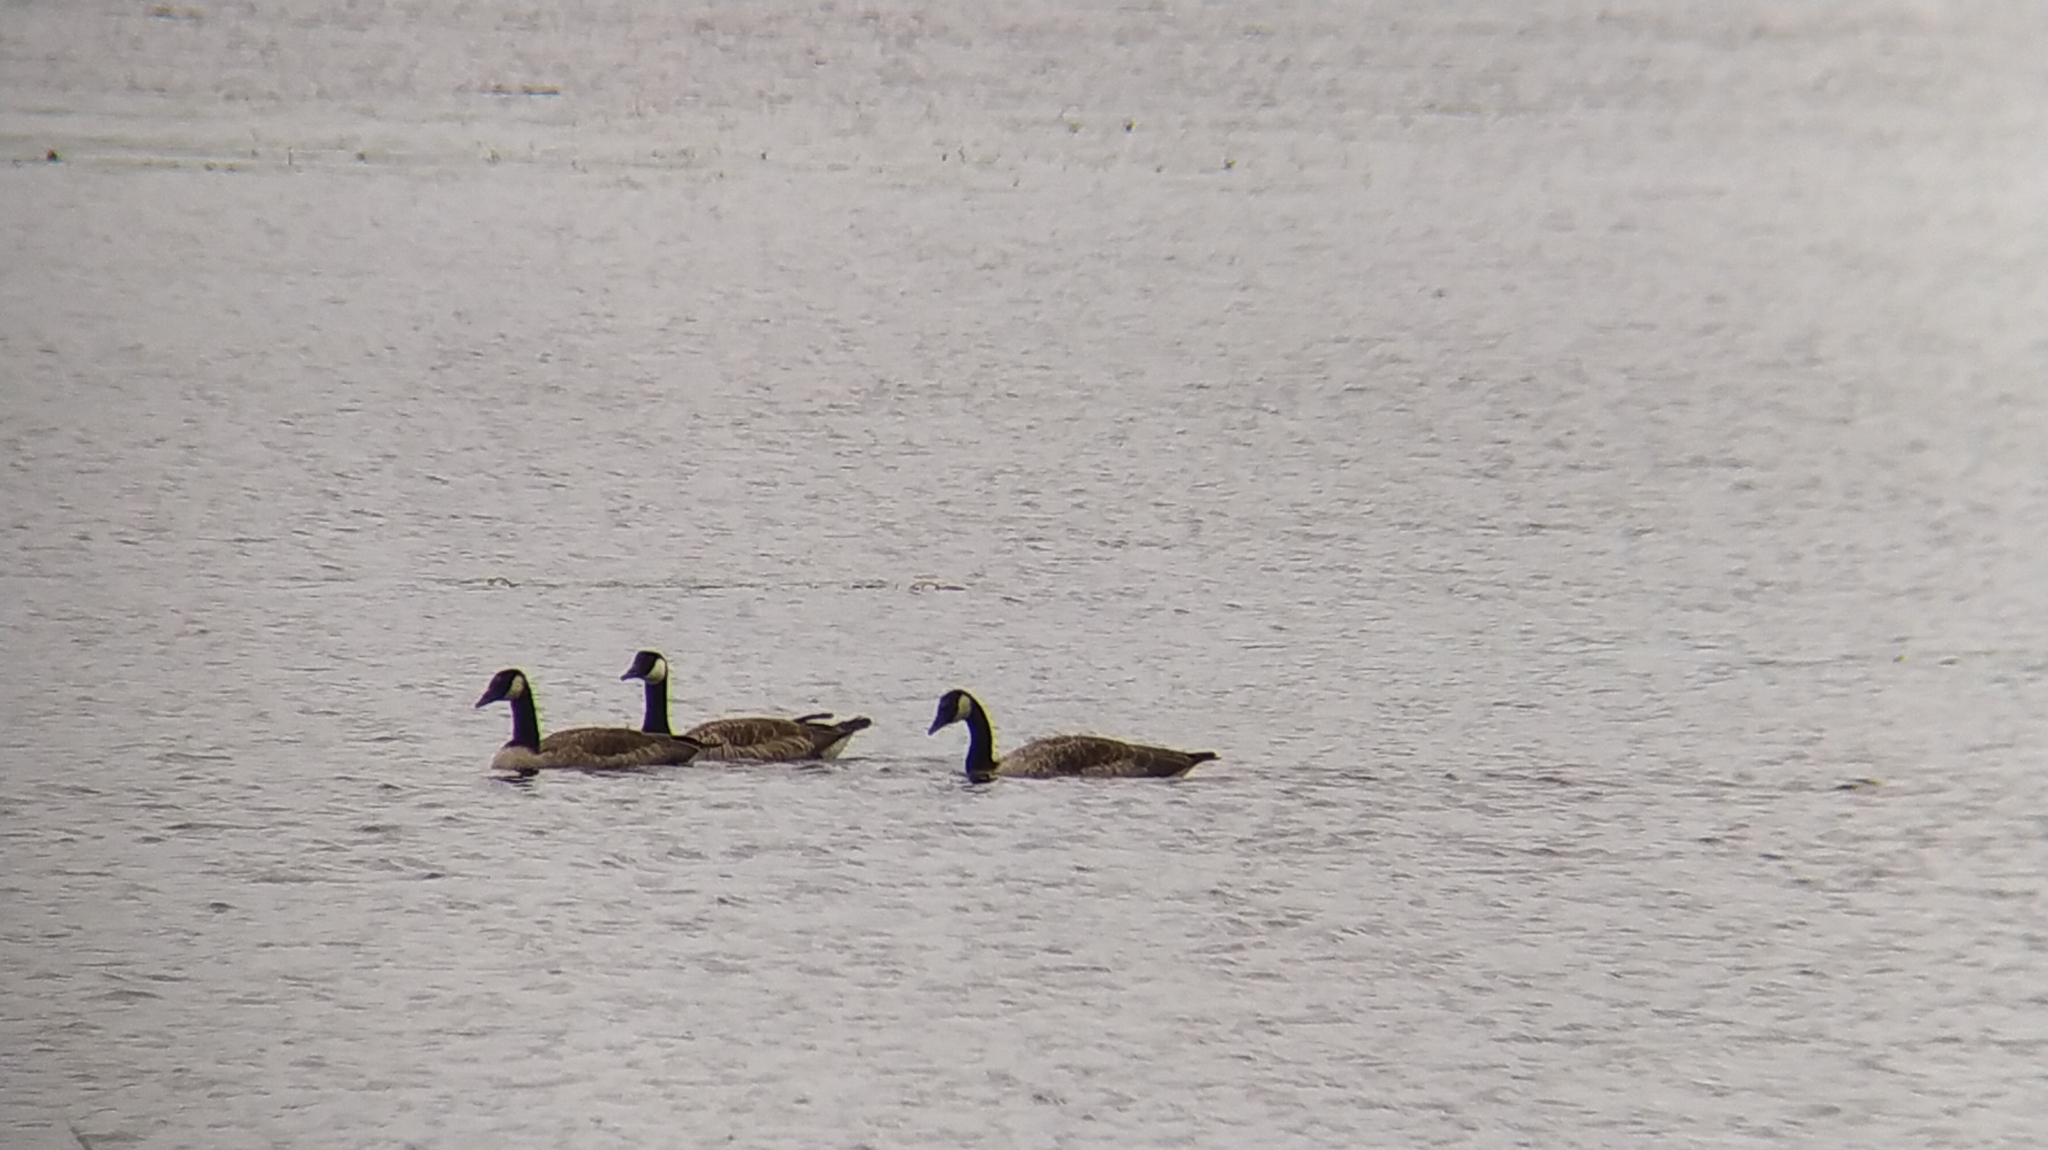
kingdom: Animalia
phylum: Chordata
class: Aves
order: Anseriformes
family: Anatidae
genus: Branta
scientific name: Branta canadensis
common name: Canada goose
